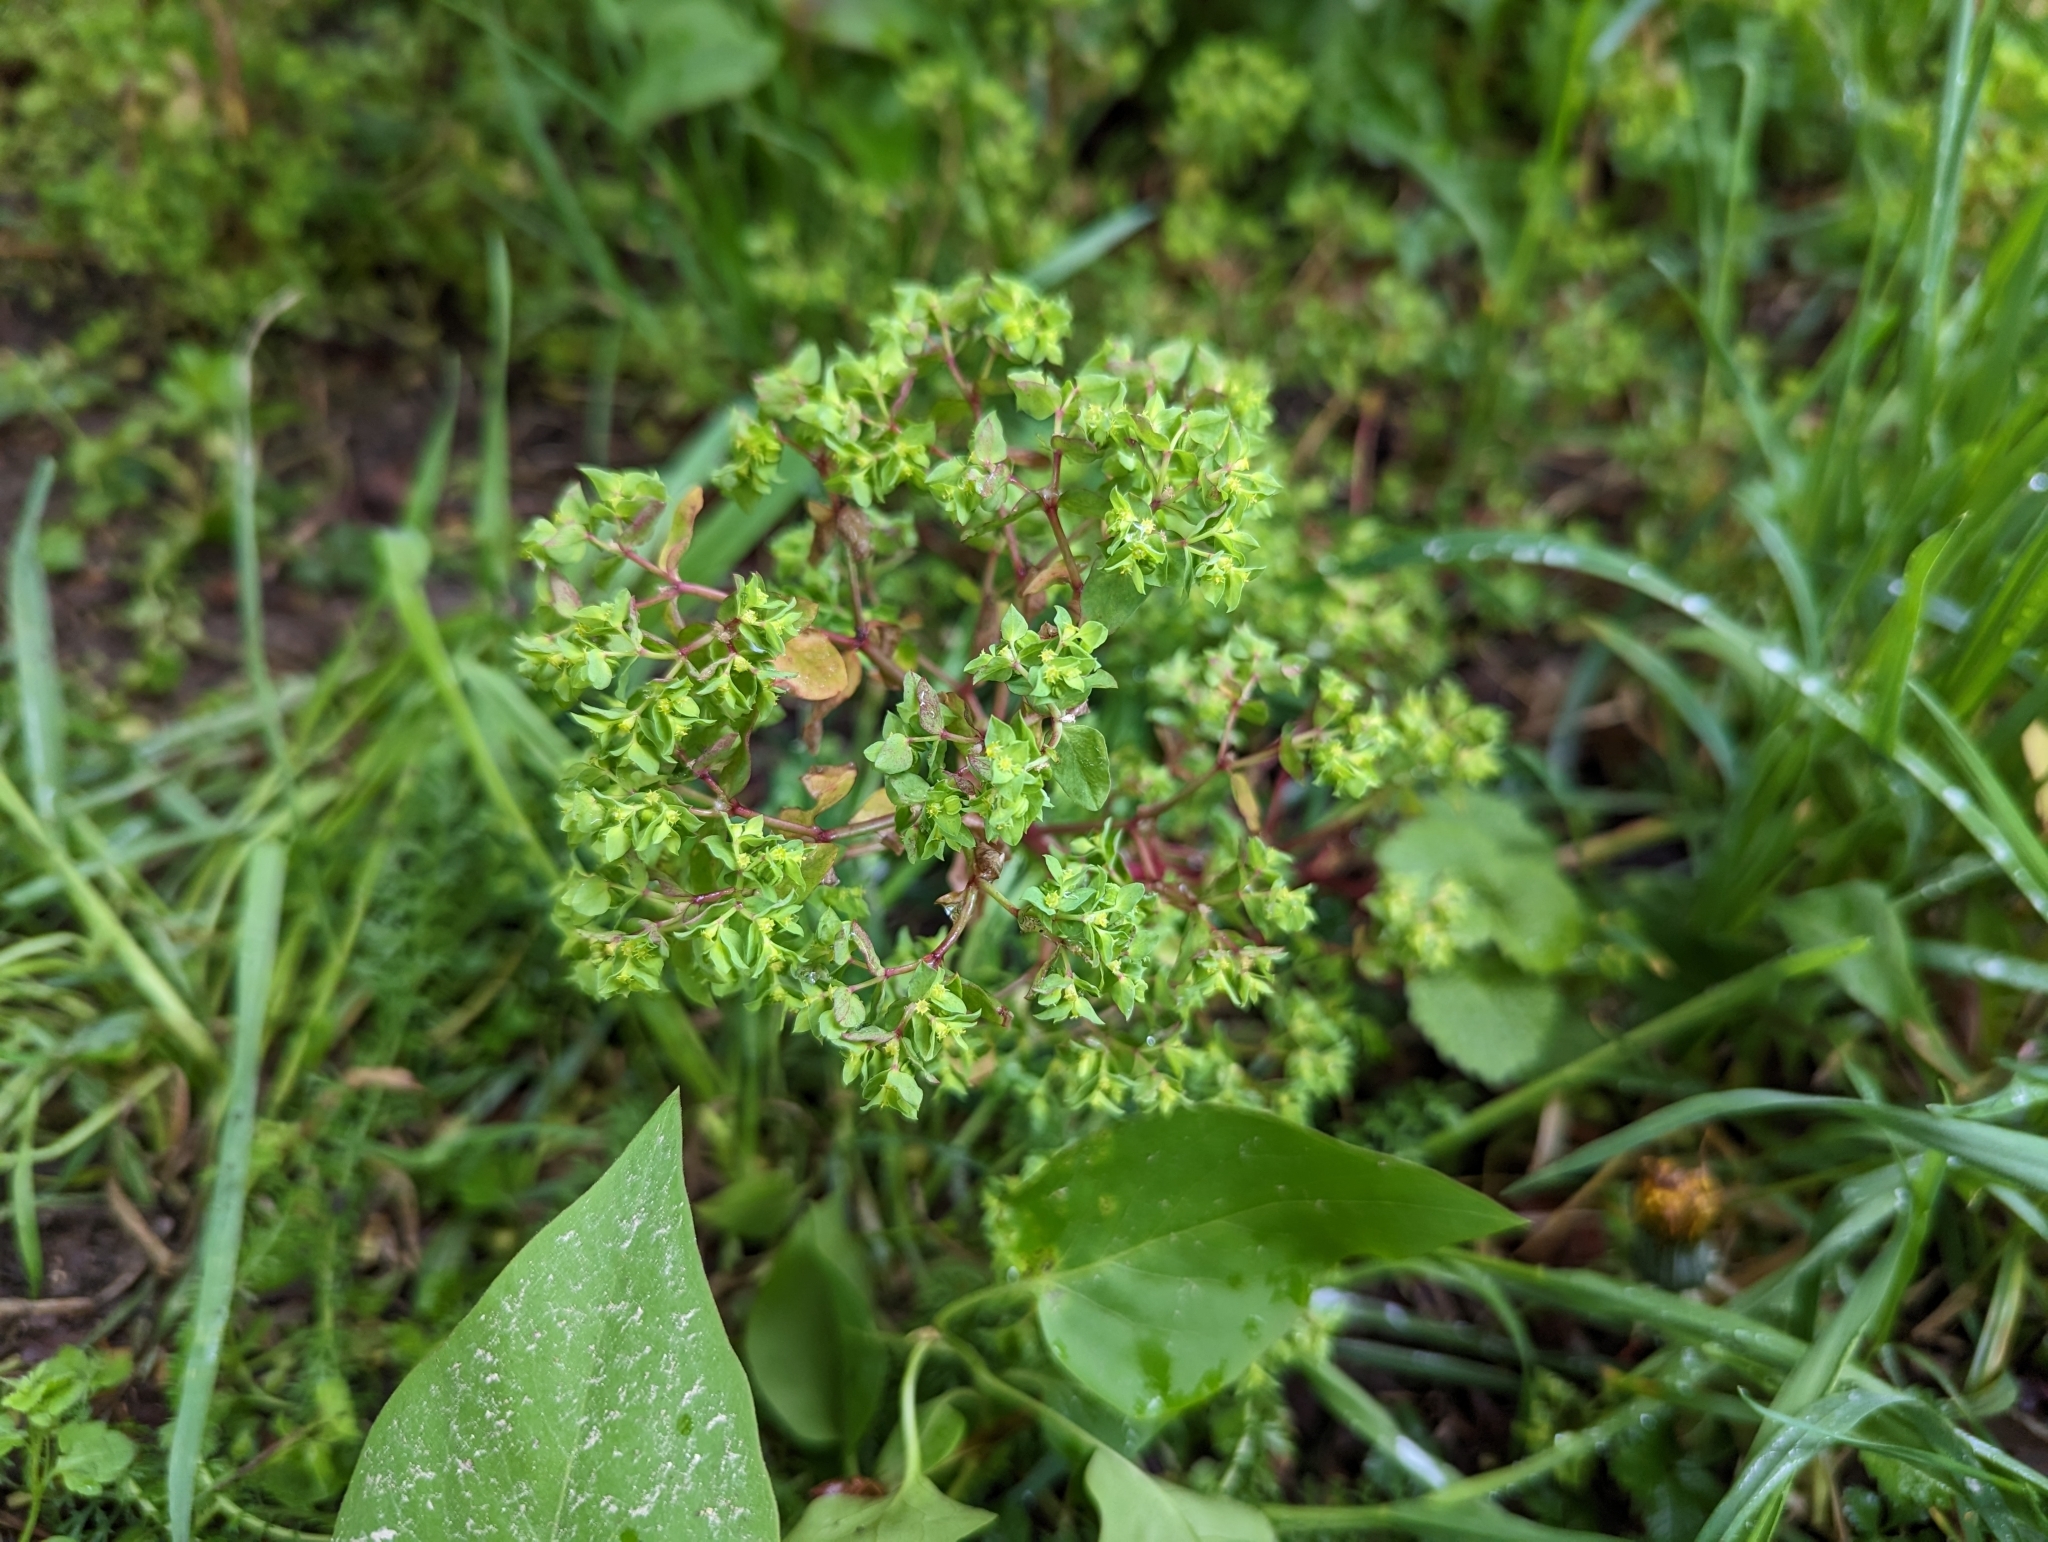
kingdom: Plantae
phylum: Tracheophyta
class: Magnoliopsida
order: Malpighiales
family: Euphorbiaceae
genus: Euphorbia
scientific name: Euphorbia peplus
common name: Petty spurge
